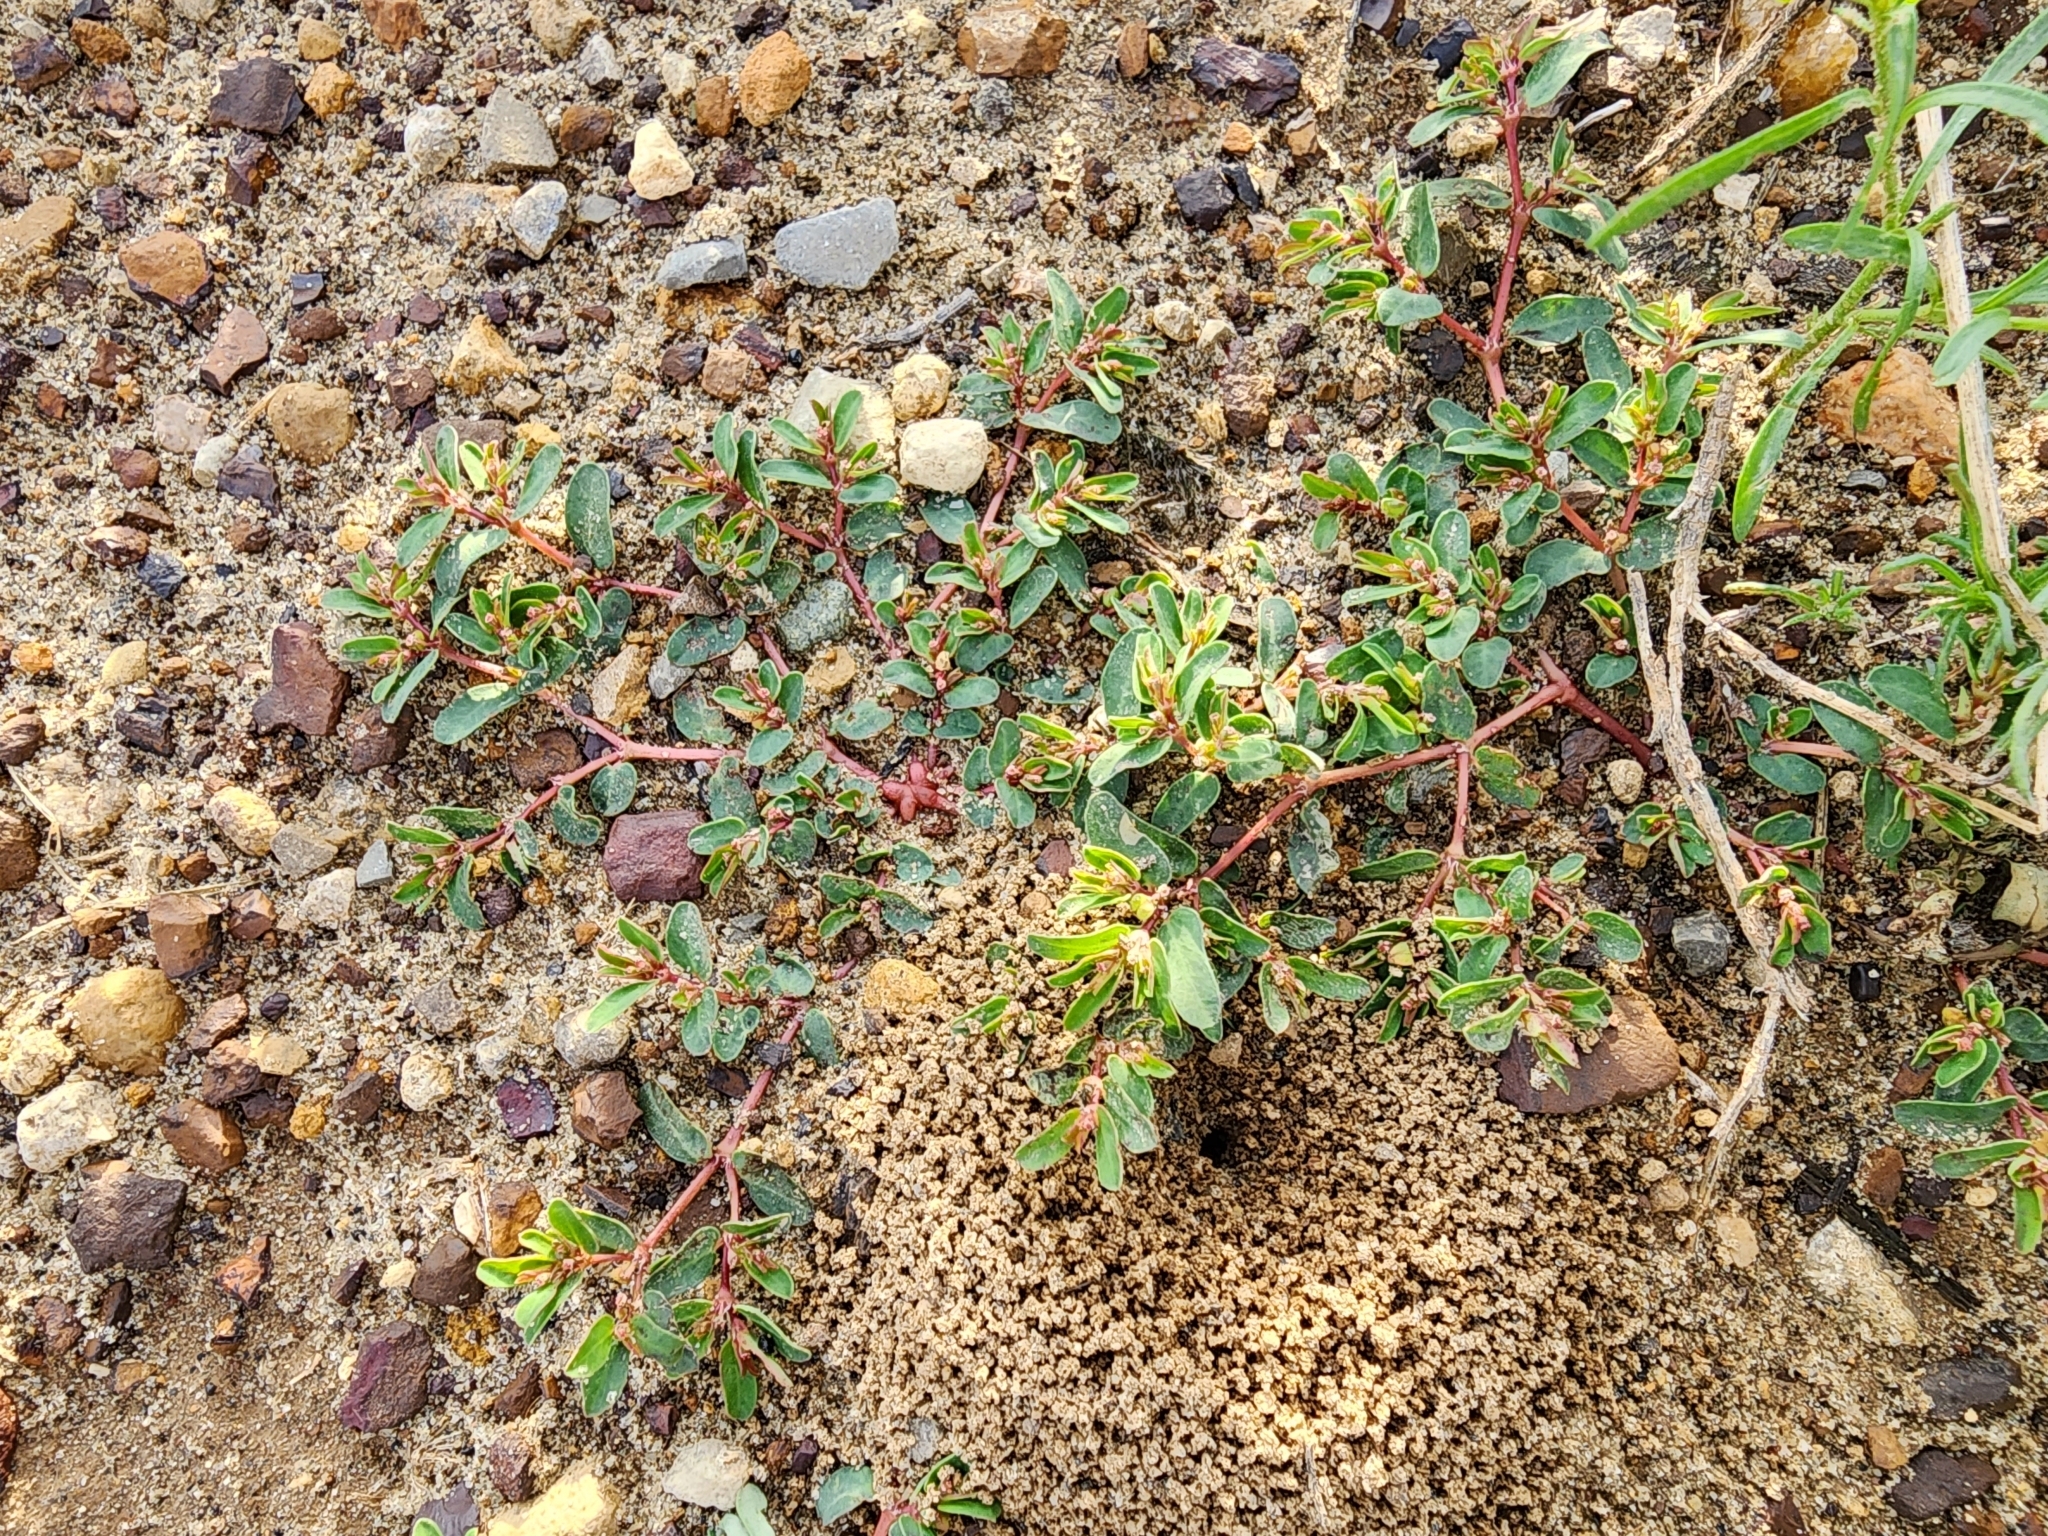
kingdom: Plantae
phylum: Tracheophyta
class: Magnoliopsida
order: Malpighiales
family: Euphorbiaceae
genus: Euphorbia
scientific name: Euphorbia glyptosperma
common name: Corrugate-seeded spurge
